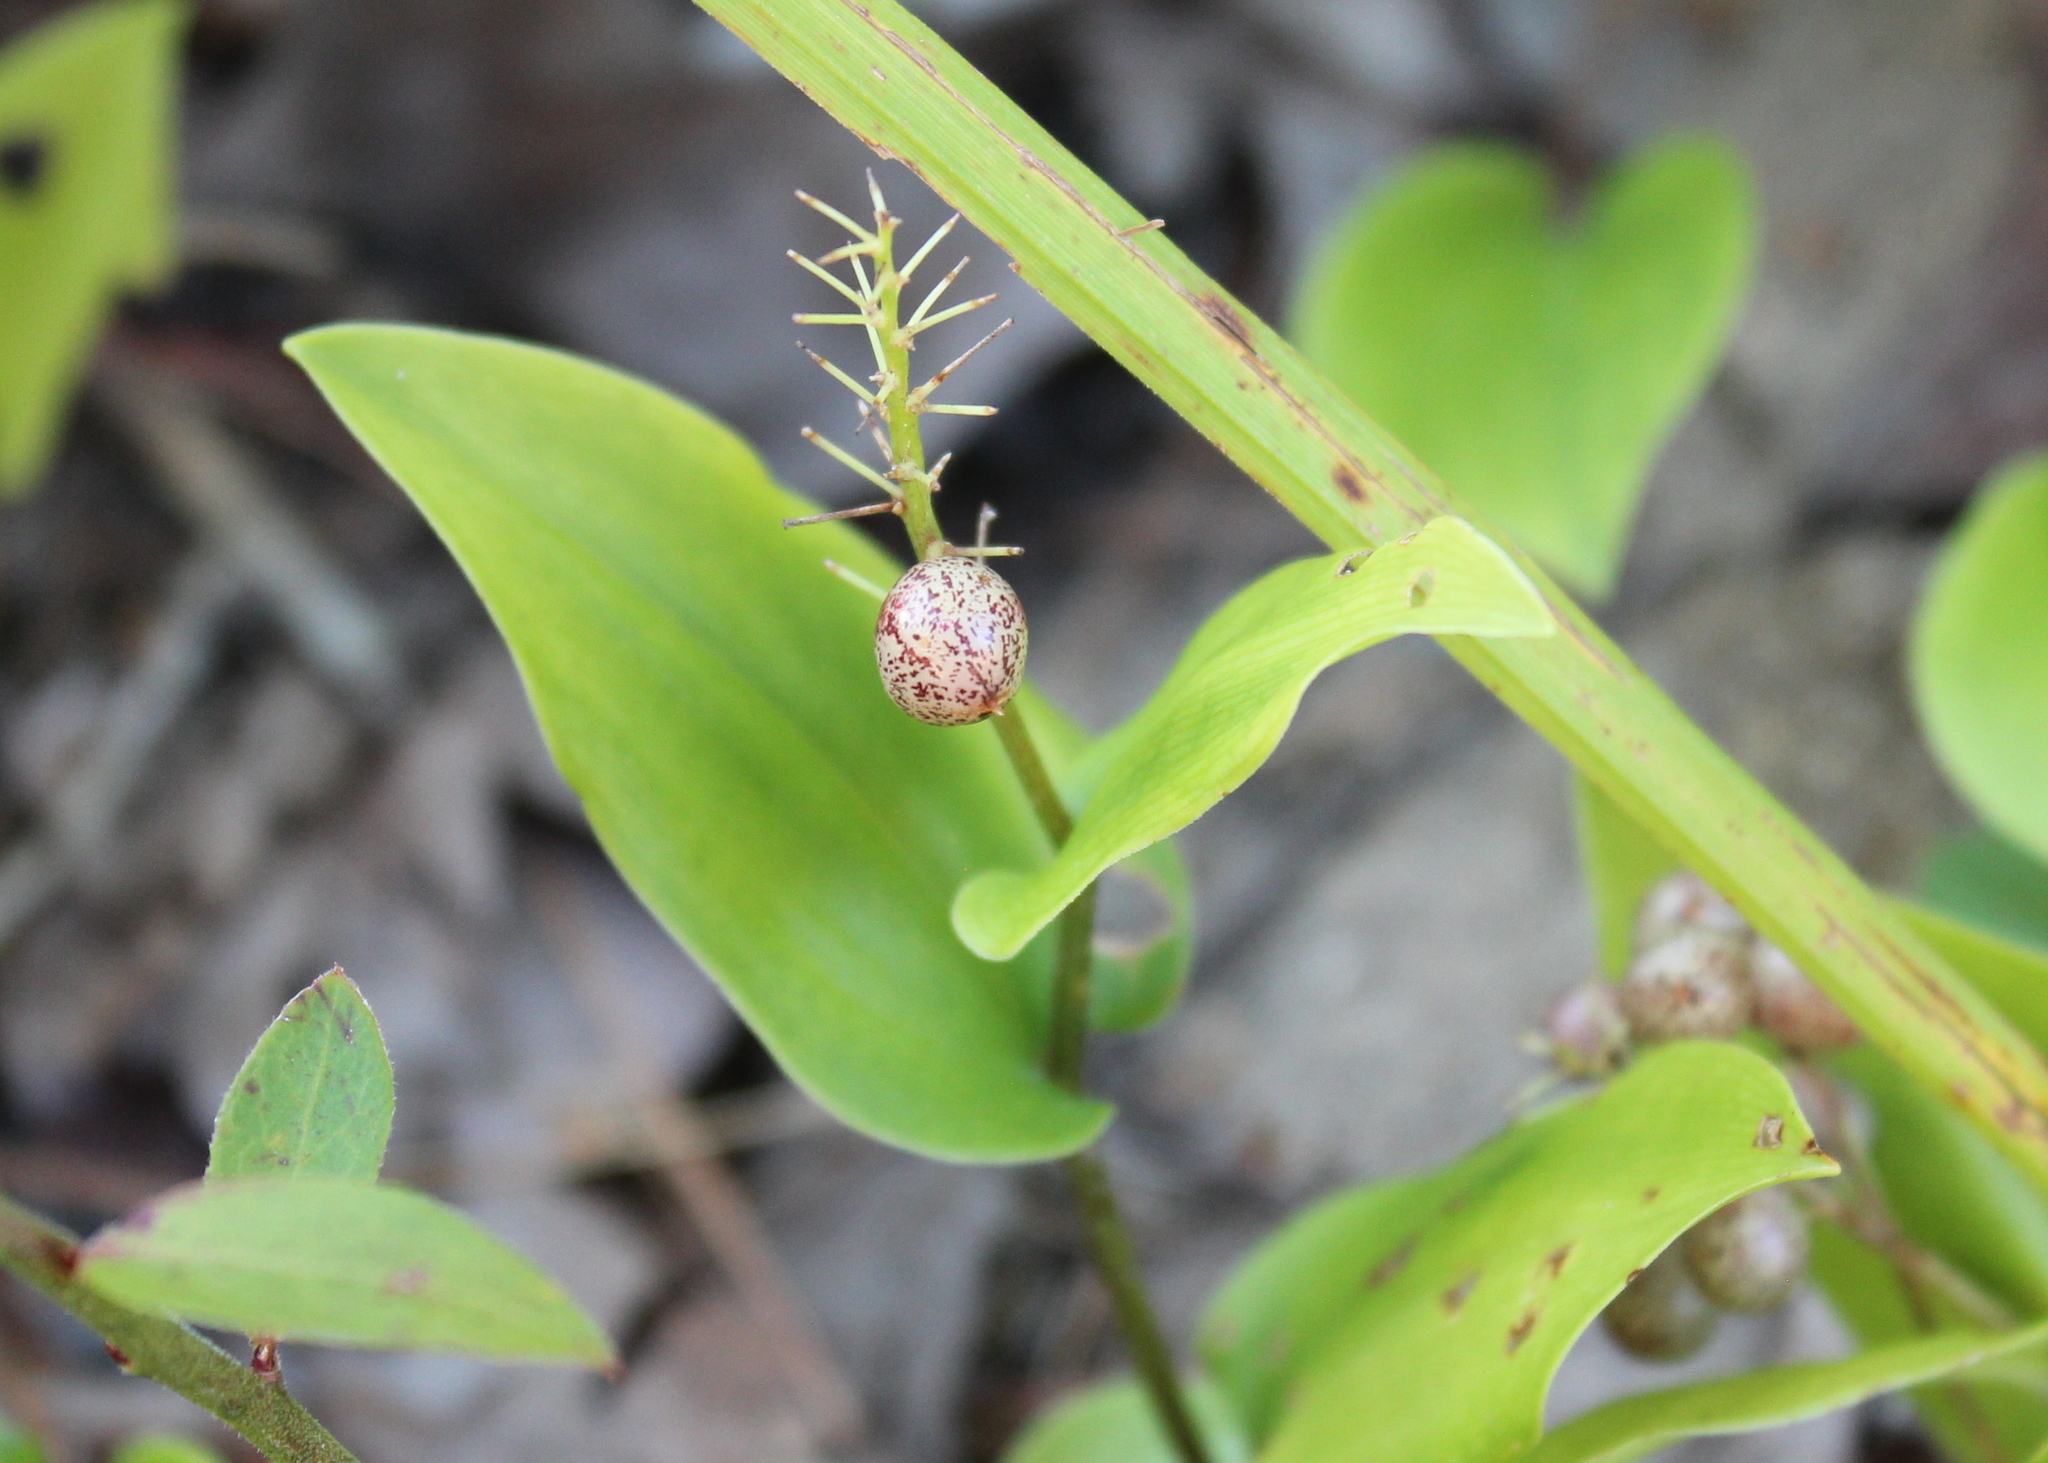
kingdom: Plantae
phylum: Tracheophyta
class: Liliopsida
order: Asparagales
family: Asparagaceae
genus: Maianthemum
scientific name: Maianthemum canadense
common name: False lily-of-the-valley
